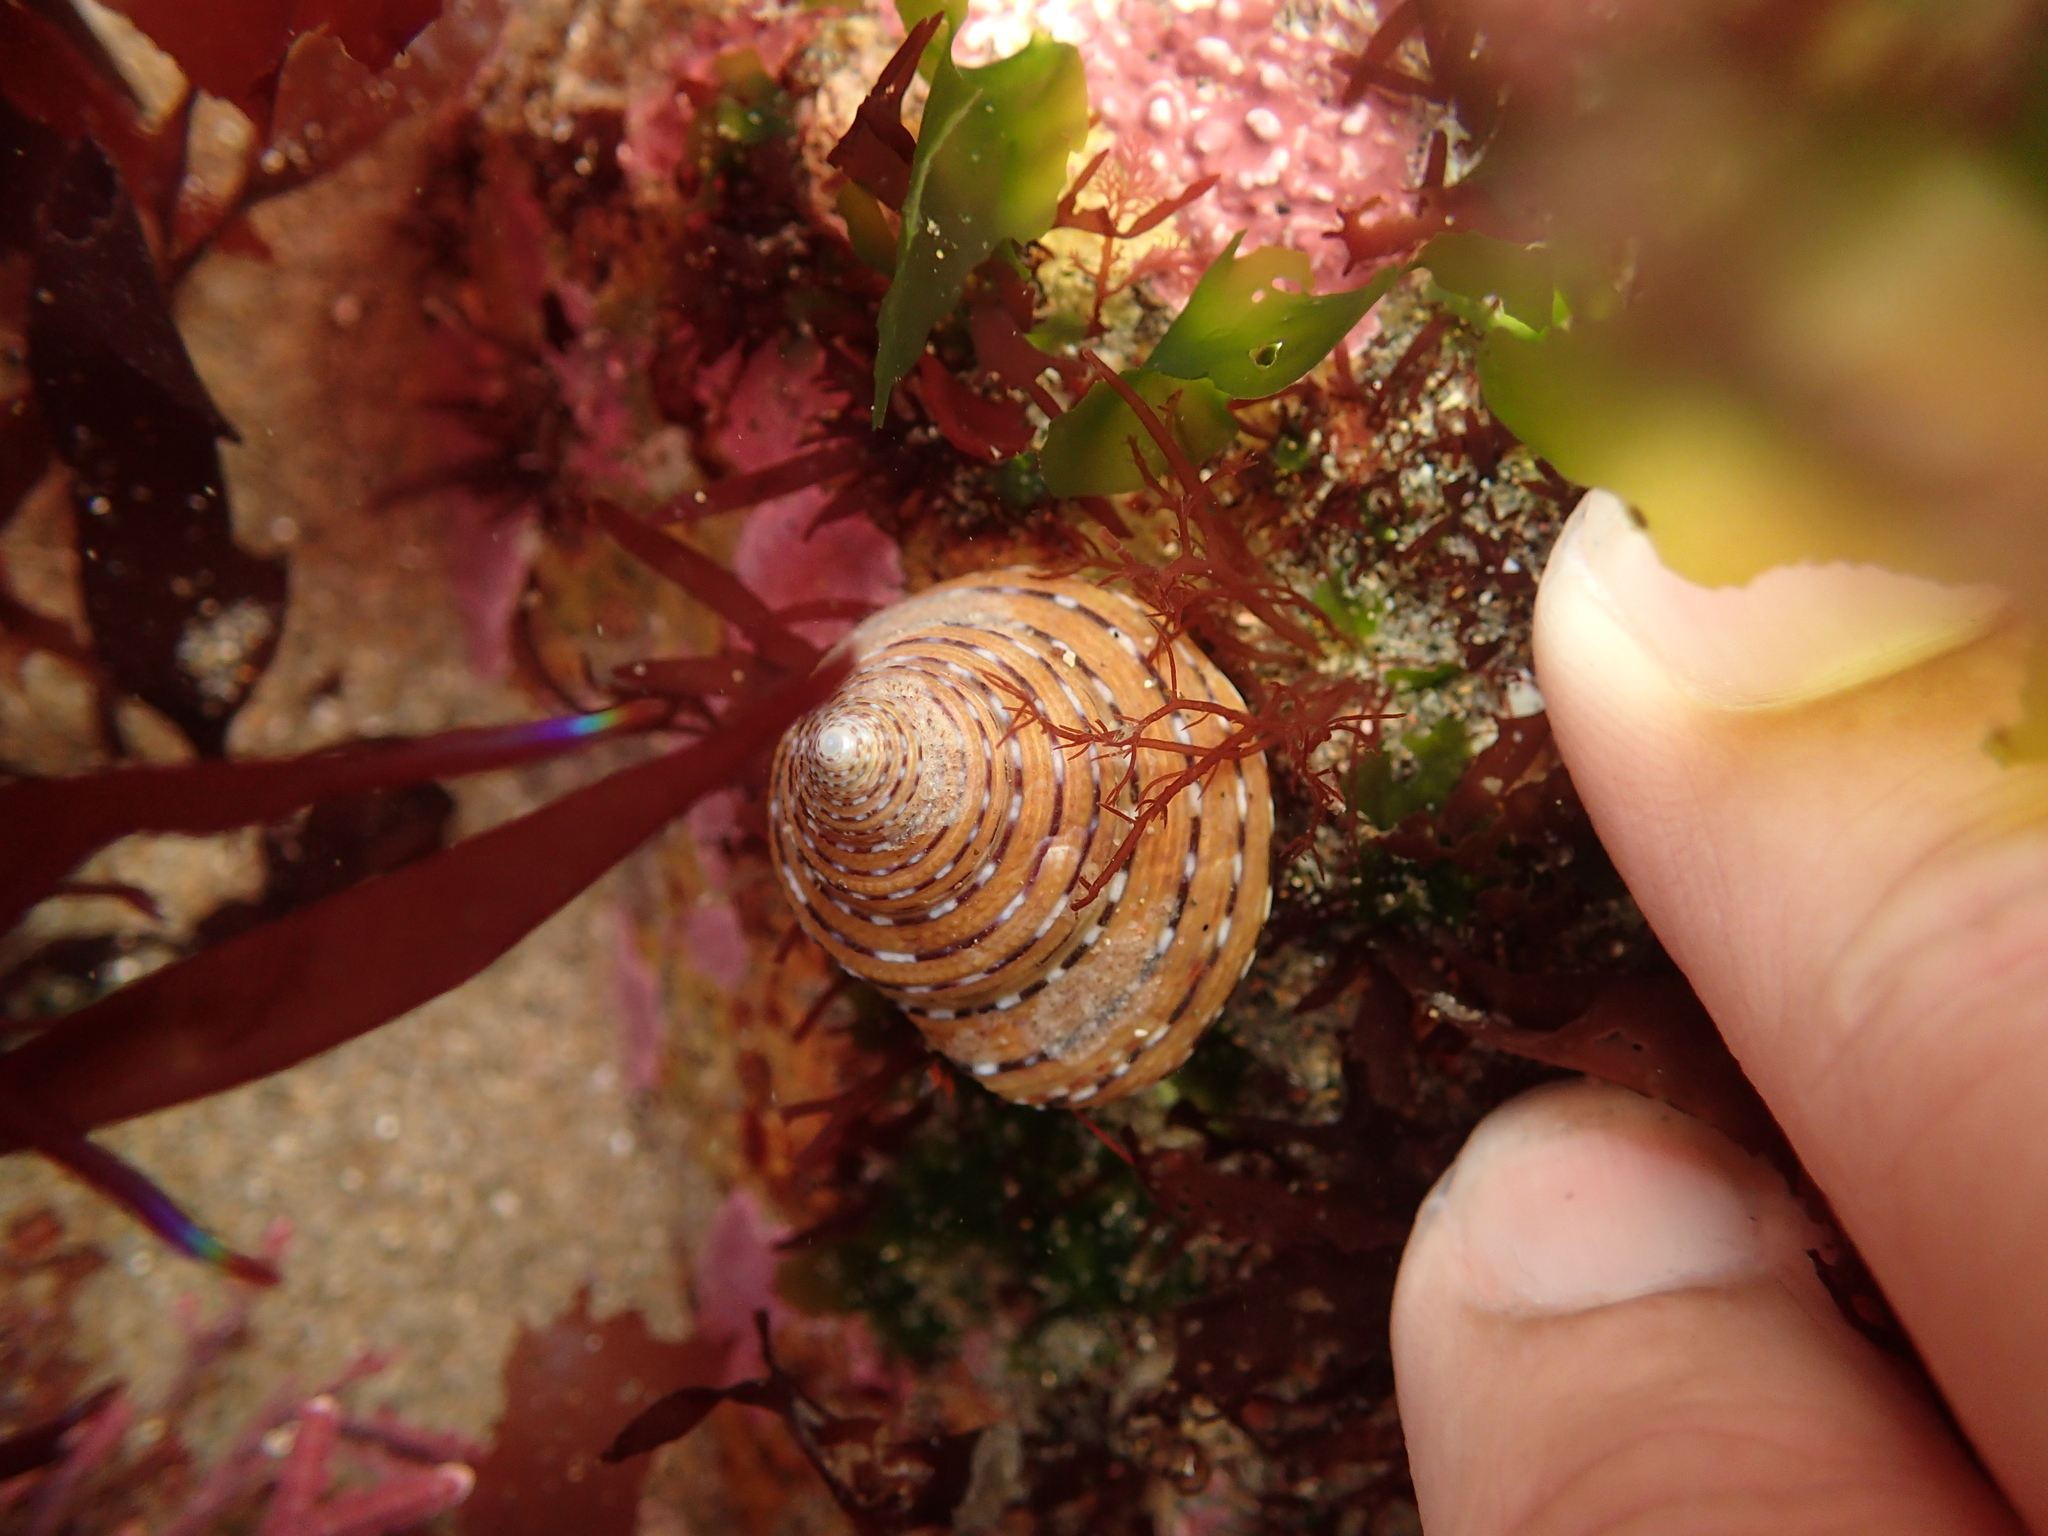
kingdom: Animalia
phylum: Mollusca
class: Gastropoda
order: Trochida
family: Calliostomatidae
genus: Calliostoma
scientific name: Calliostoma tricolor
